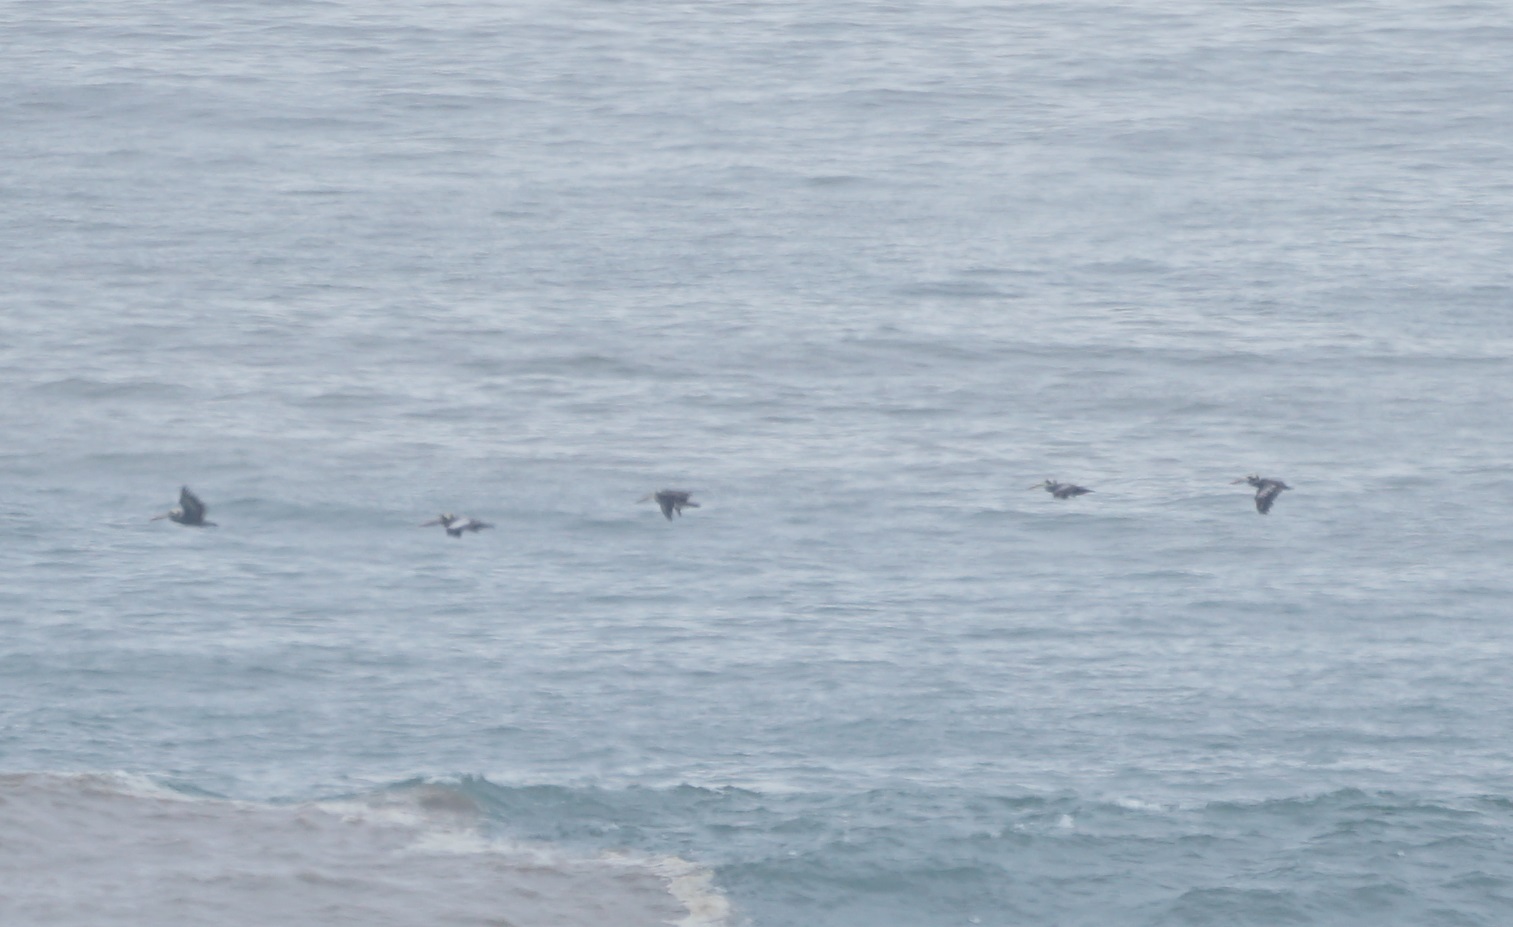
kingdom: Animalia
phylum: Chordata
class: Aves
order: Pelecaniformes
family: Pelecanidae
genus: Pelecanus
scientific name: Pelecanus thagus
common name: Peruvian pelican
